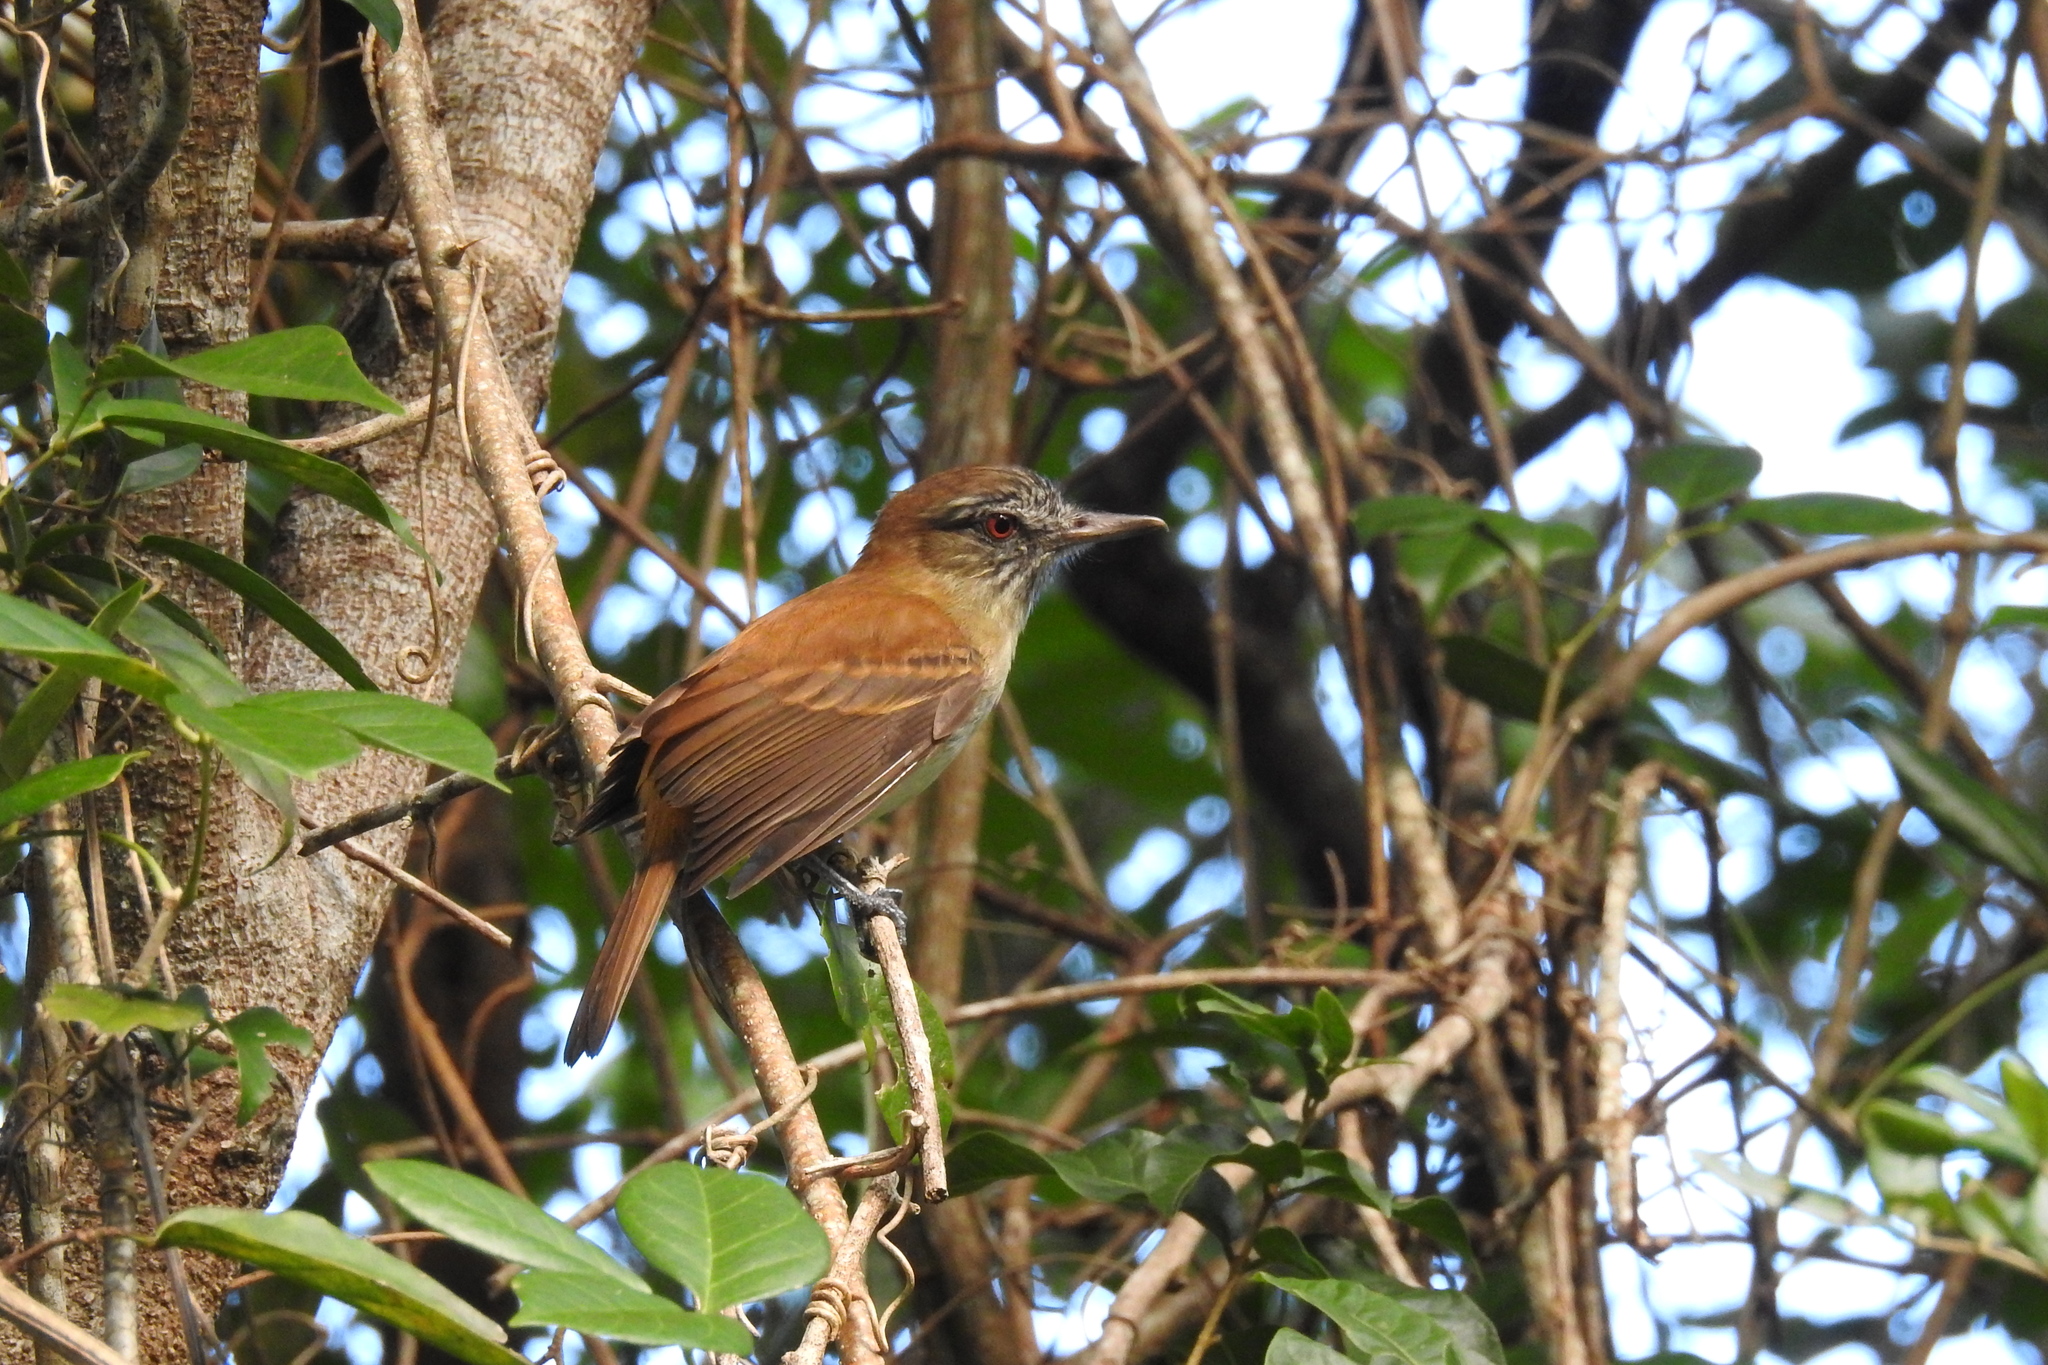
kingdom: Animalia
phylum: Chordata
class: Aves
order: Passeriformes
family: Tyrannidae
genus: Attila
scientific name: Attila spadiceus
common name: Bright-rumped attila
